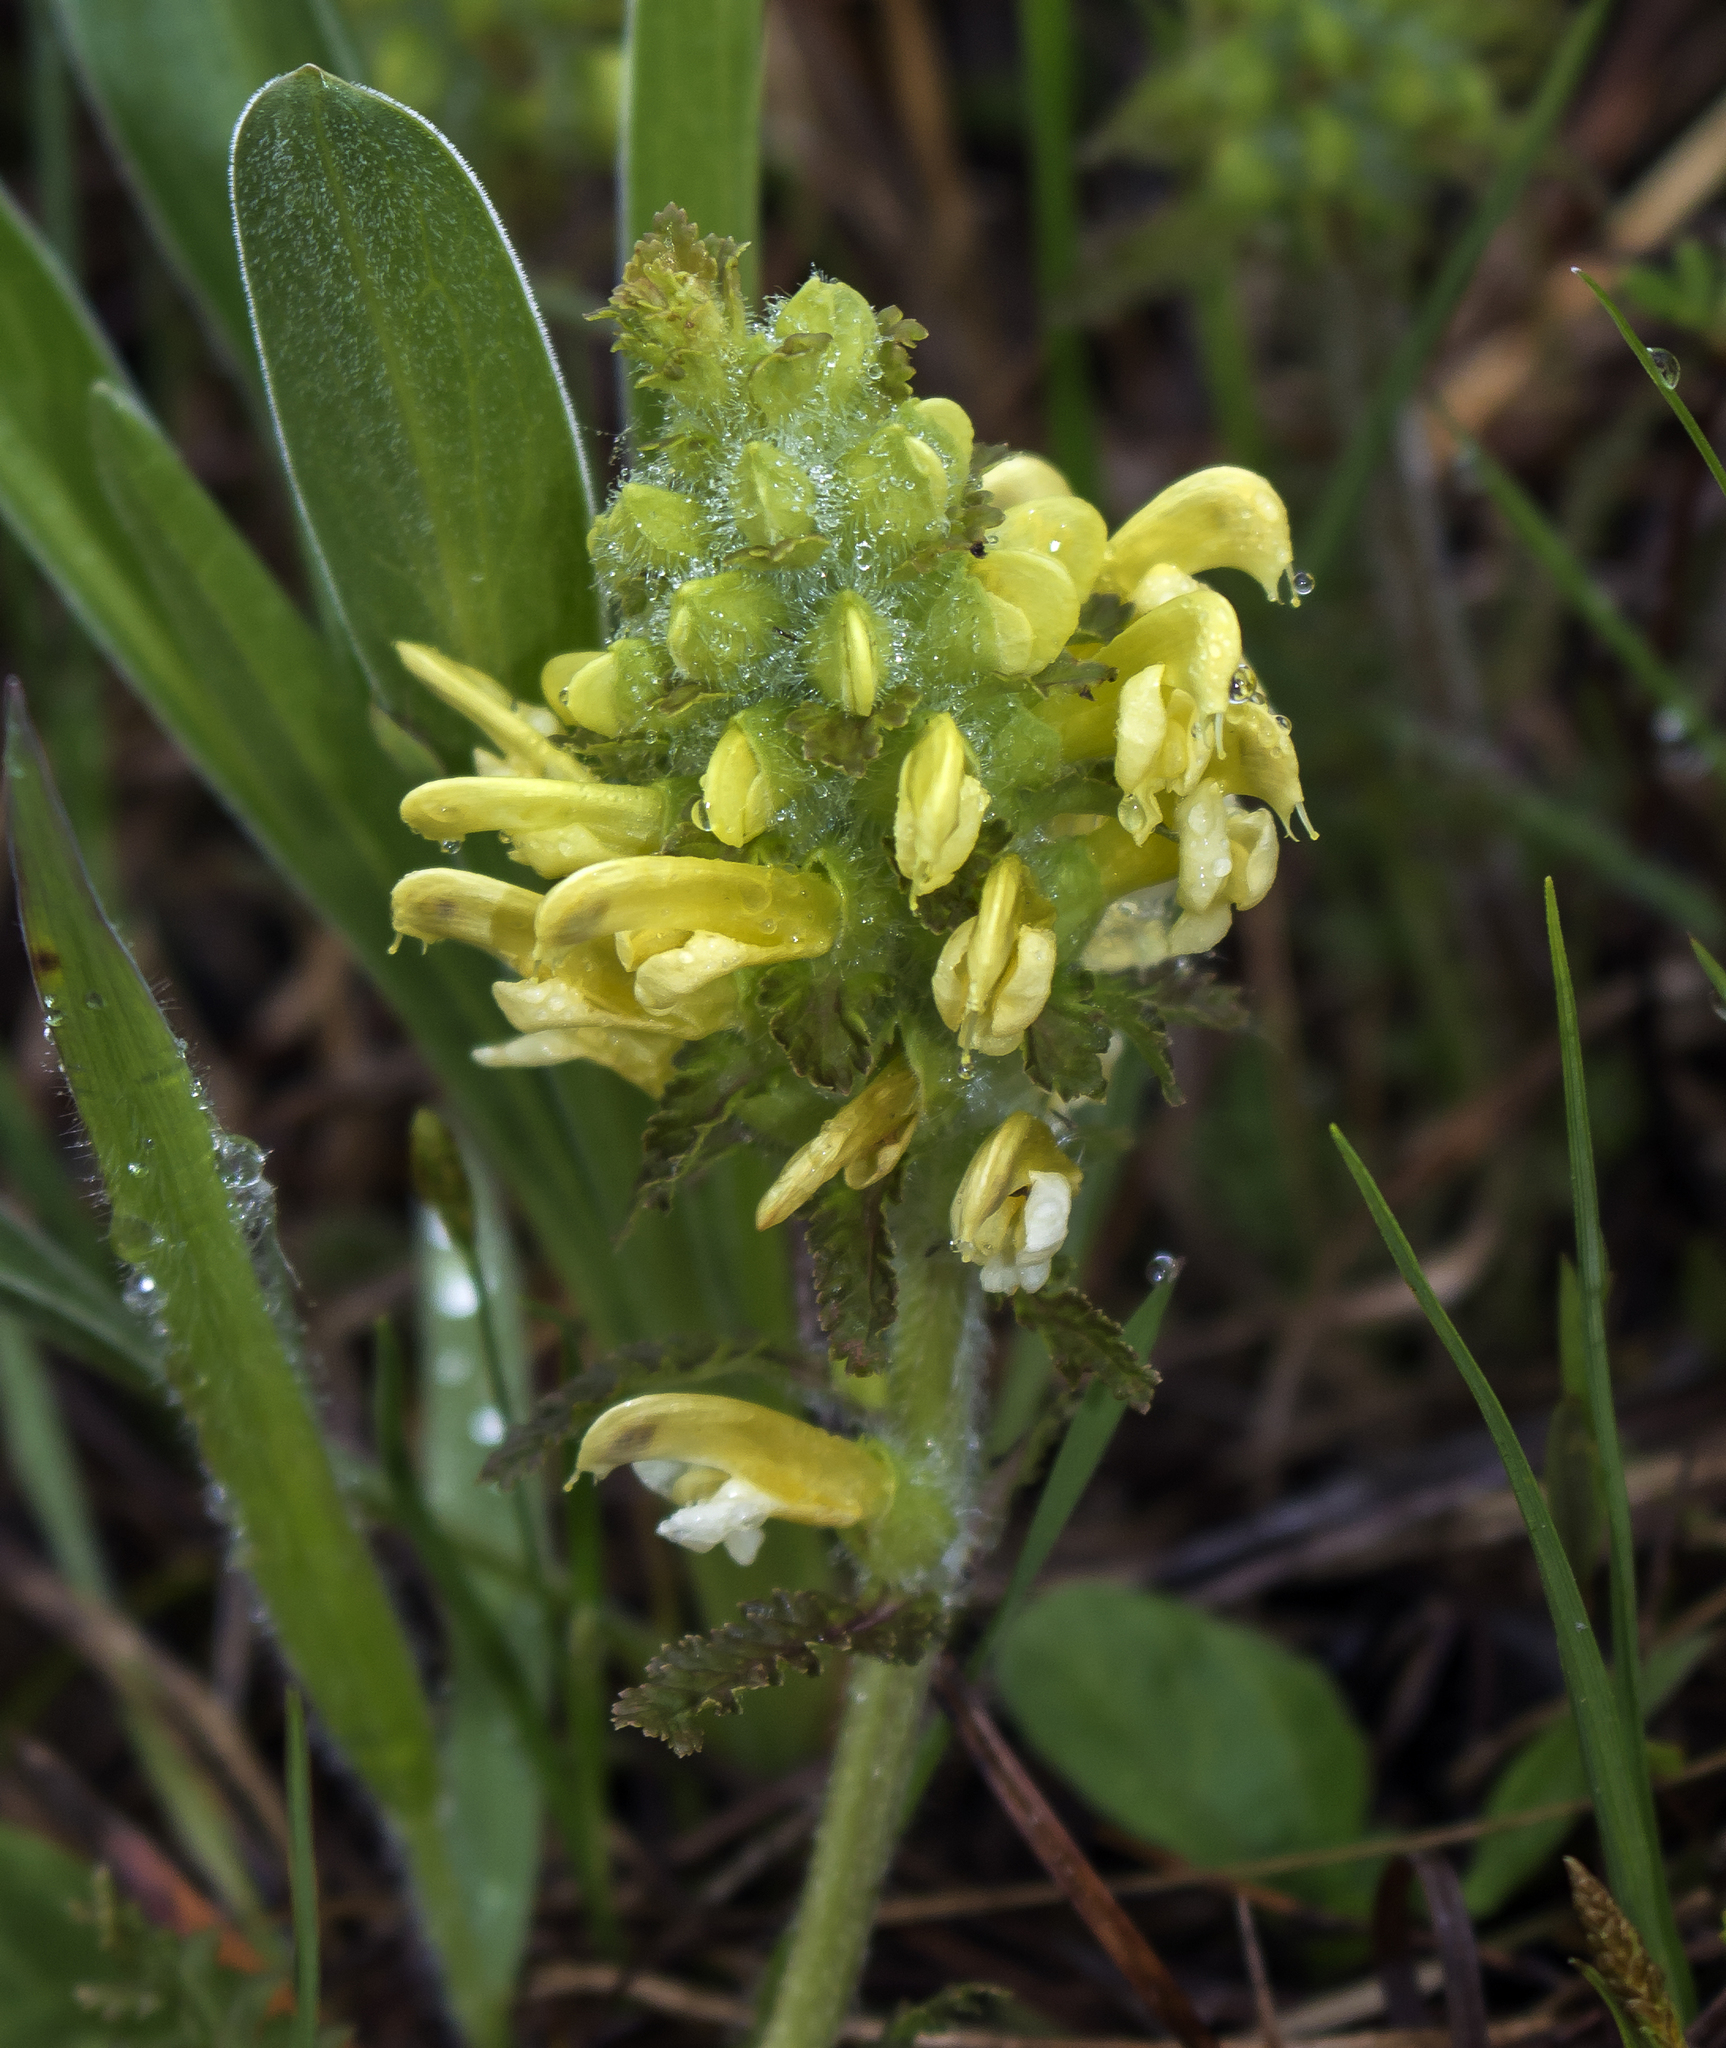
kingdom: Plantae
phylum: Tracheophyta
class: Magnoliopsida
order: Lamiales
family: Orobanchaceae
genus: Pedicularis
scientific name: Pedicularis canadensis
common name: Early lousewort
